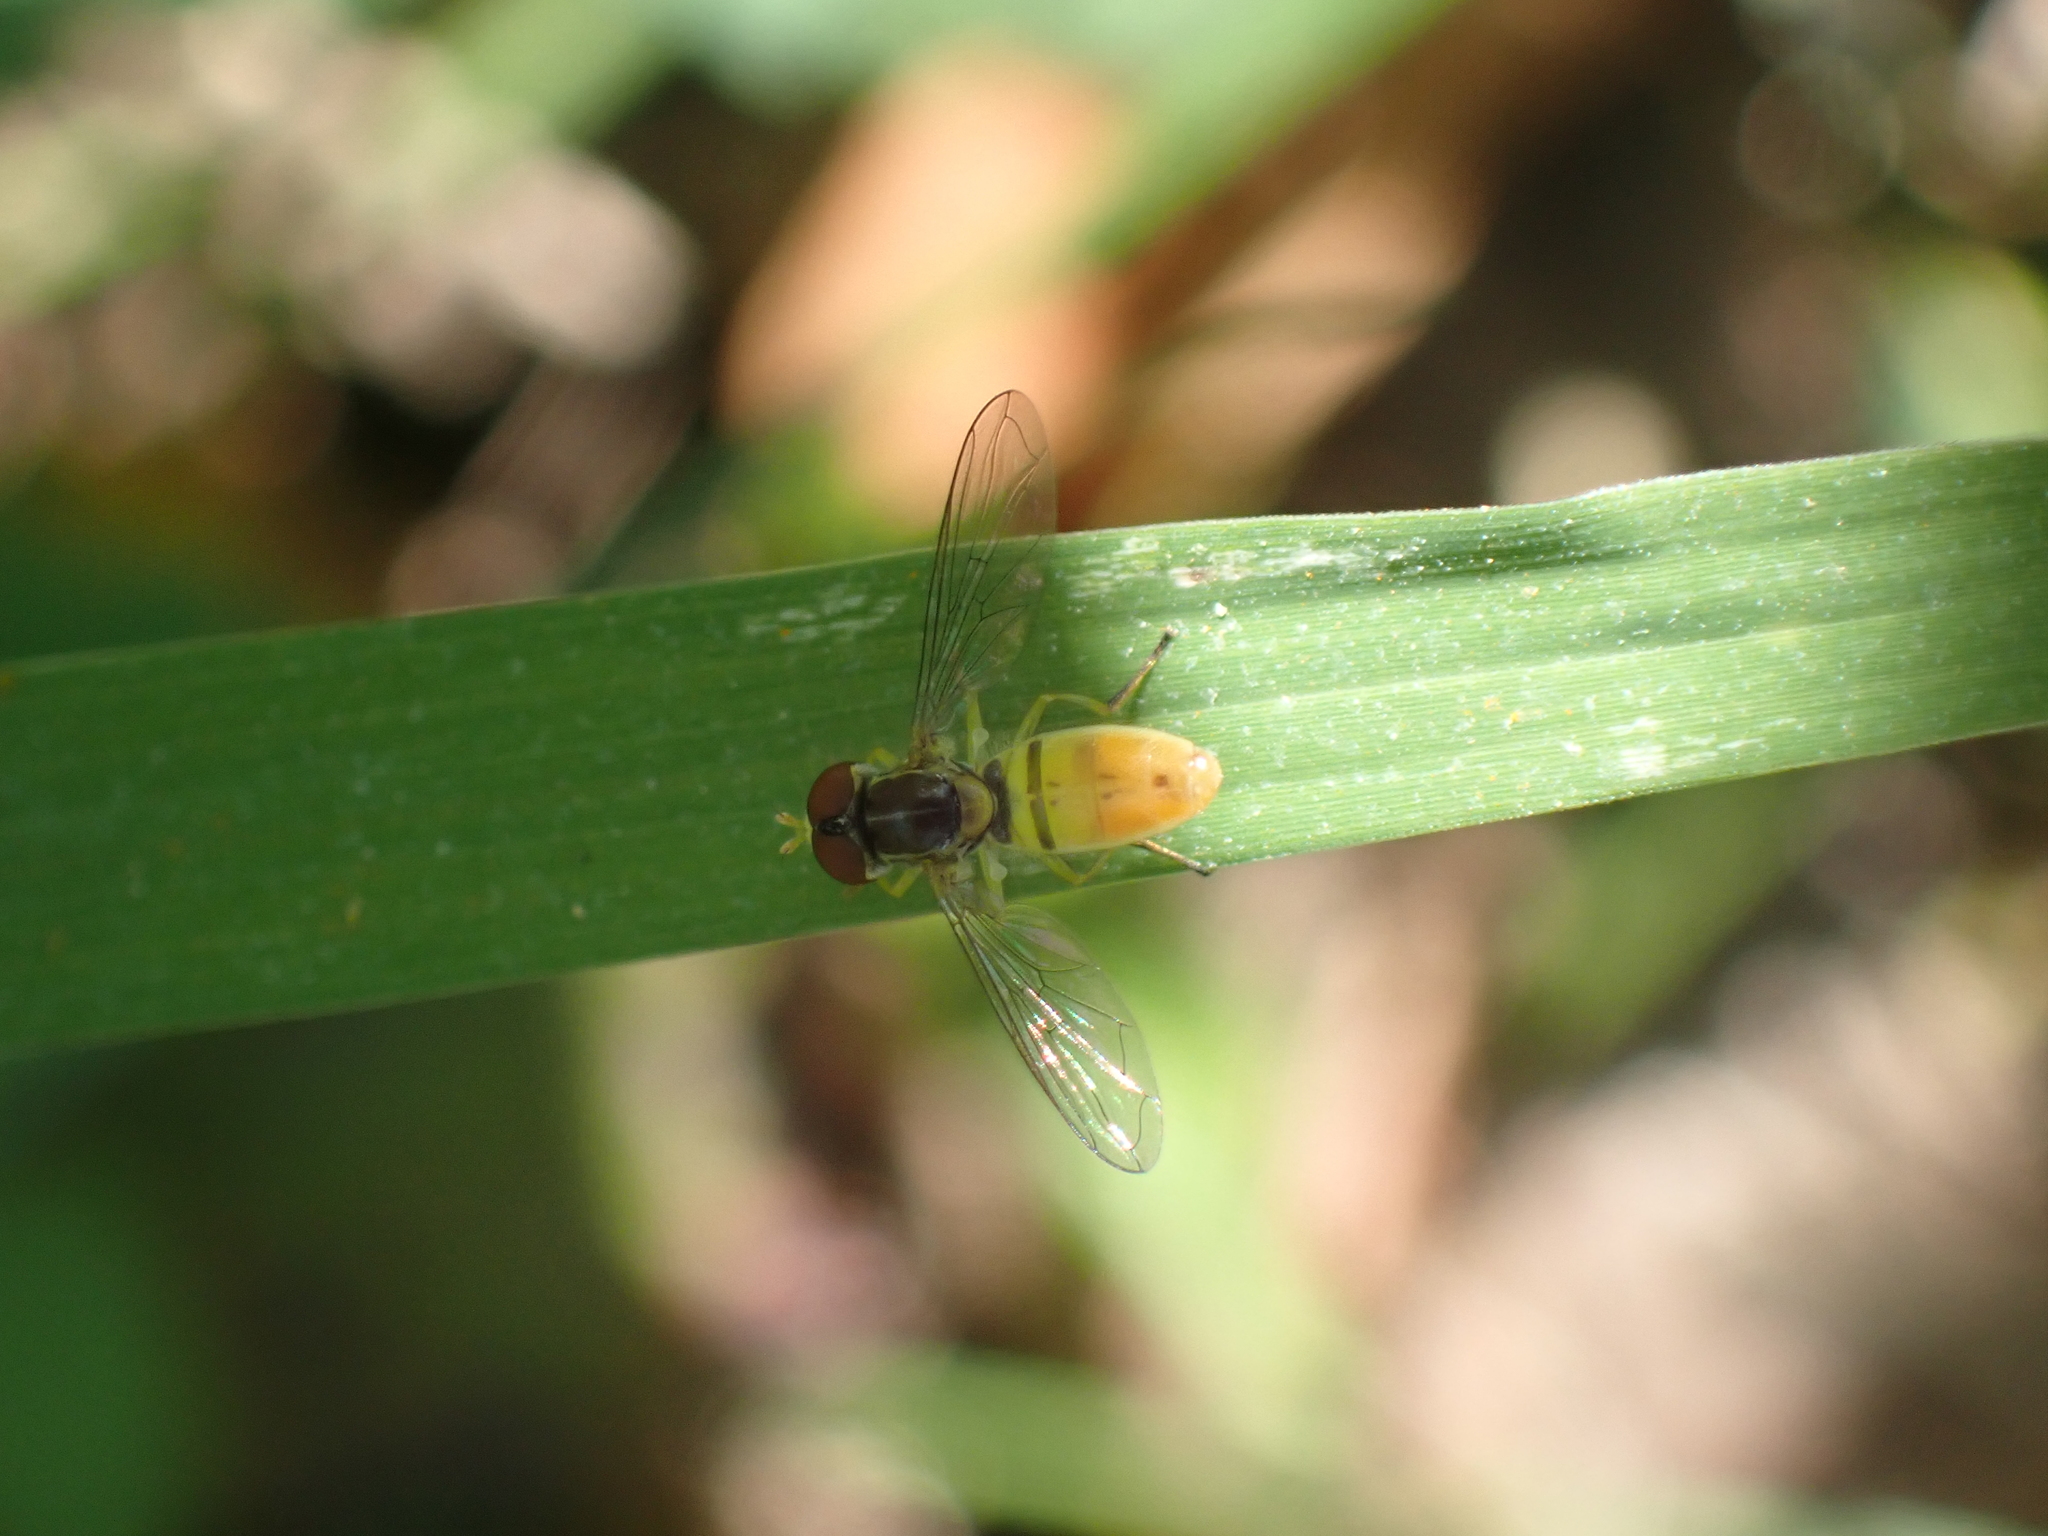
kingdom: Animalia
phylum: Arthropoda
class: Insecta
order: Diptera
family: Syrphidae
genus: Toxomerus
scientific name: Toxomerus marginatus
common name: Syrphid fly
